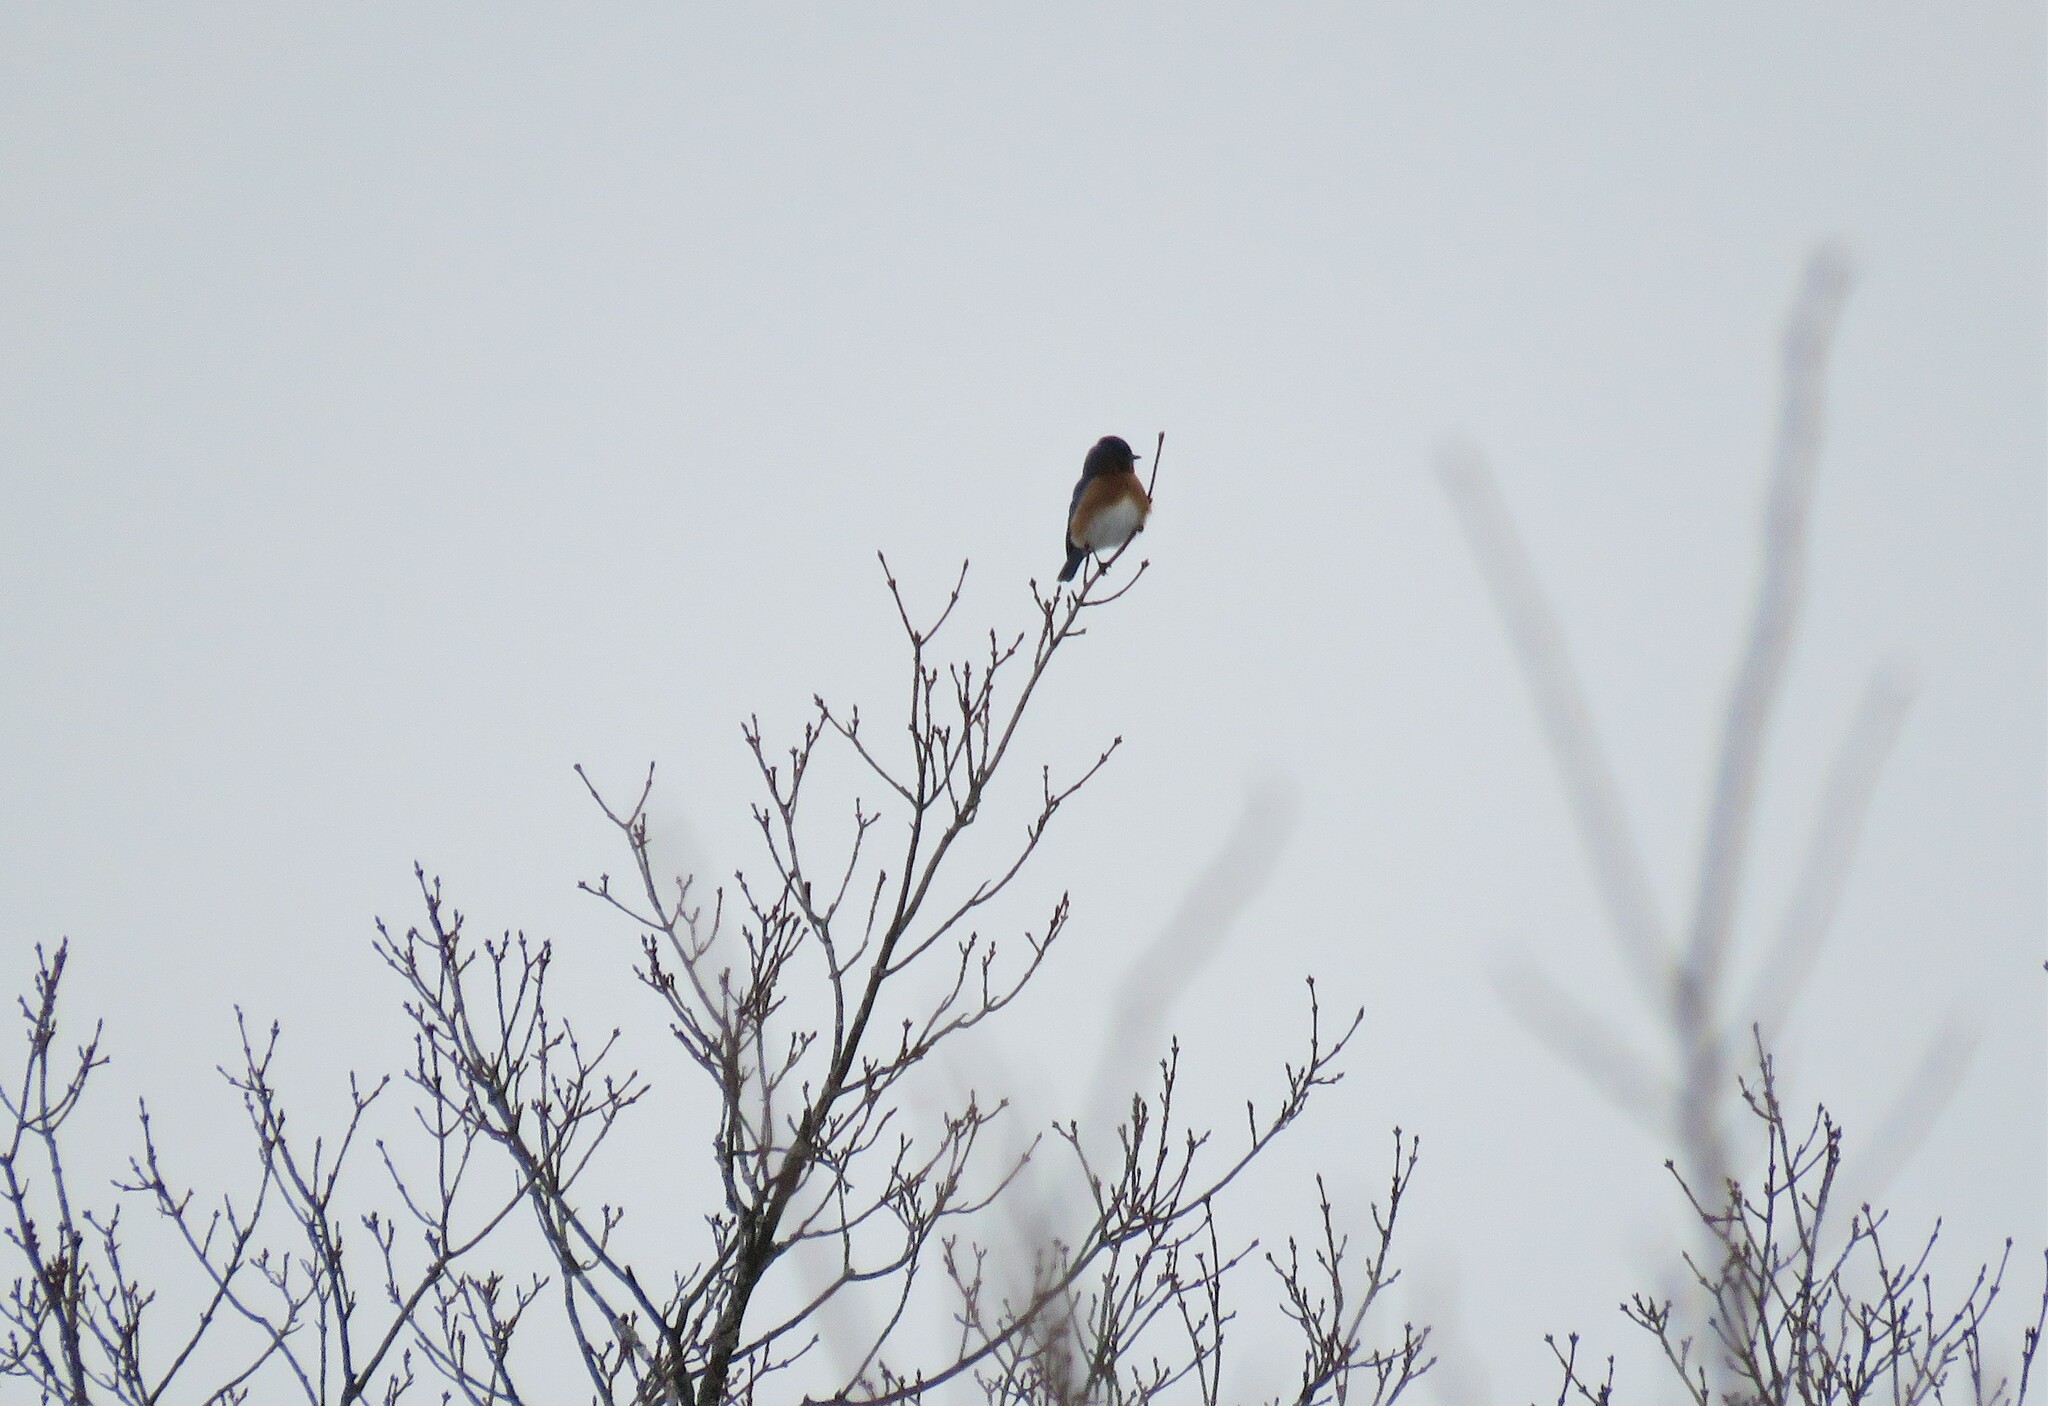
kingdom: Animalia
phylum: Chordata
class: Aves
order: Passeriformes
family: Turdidae
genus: Sialia
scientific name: Sialia sialis
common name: Eastern bluebird
